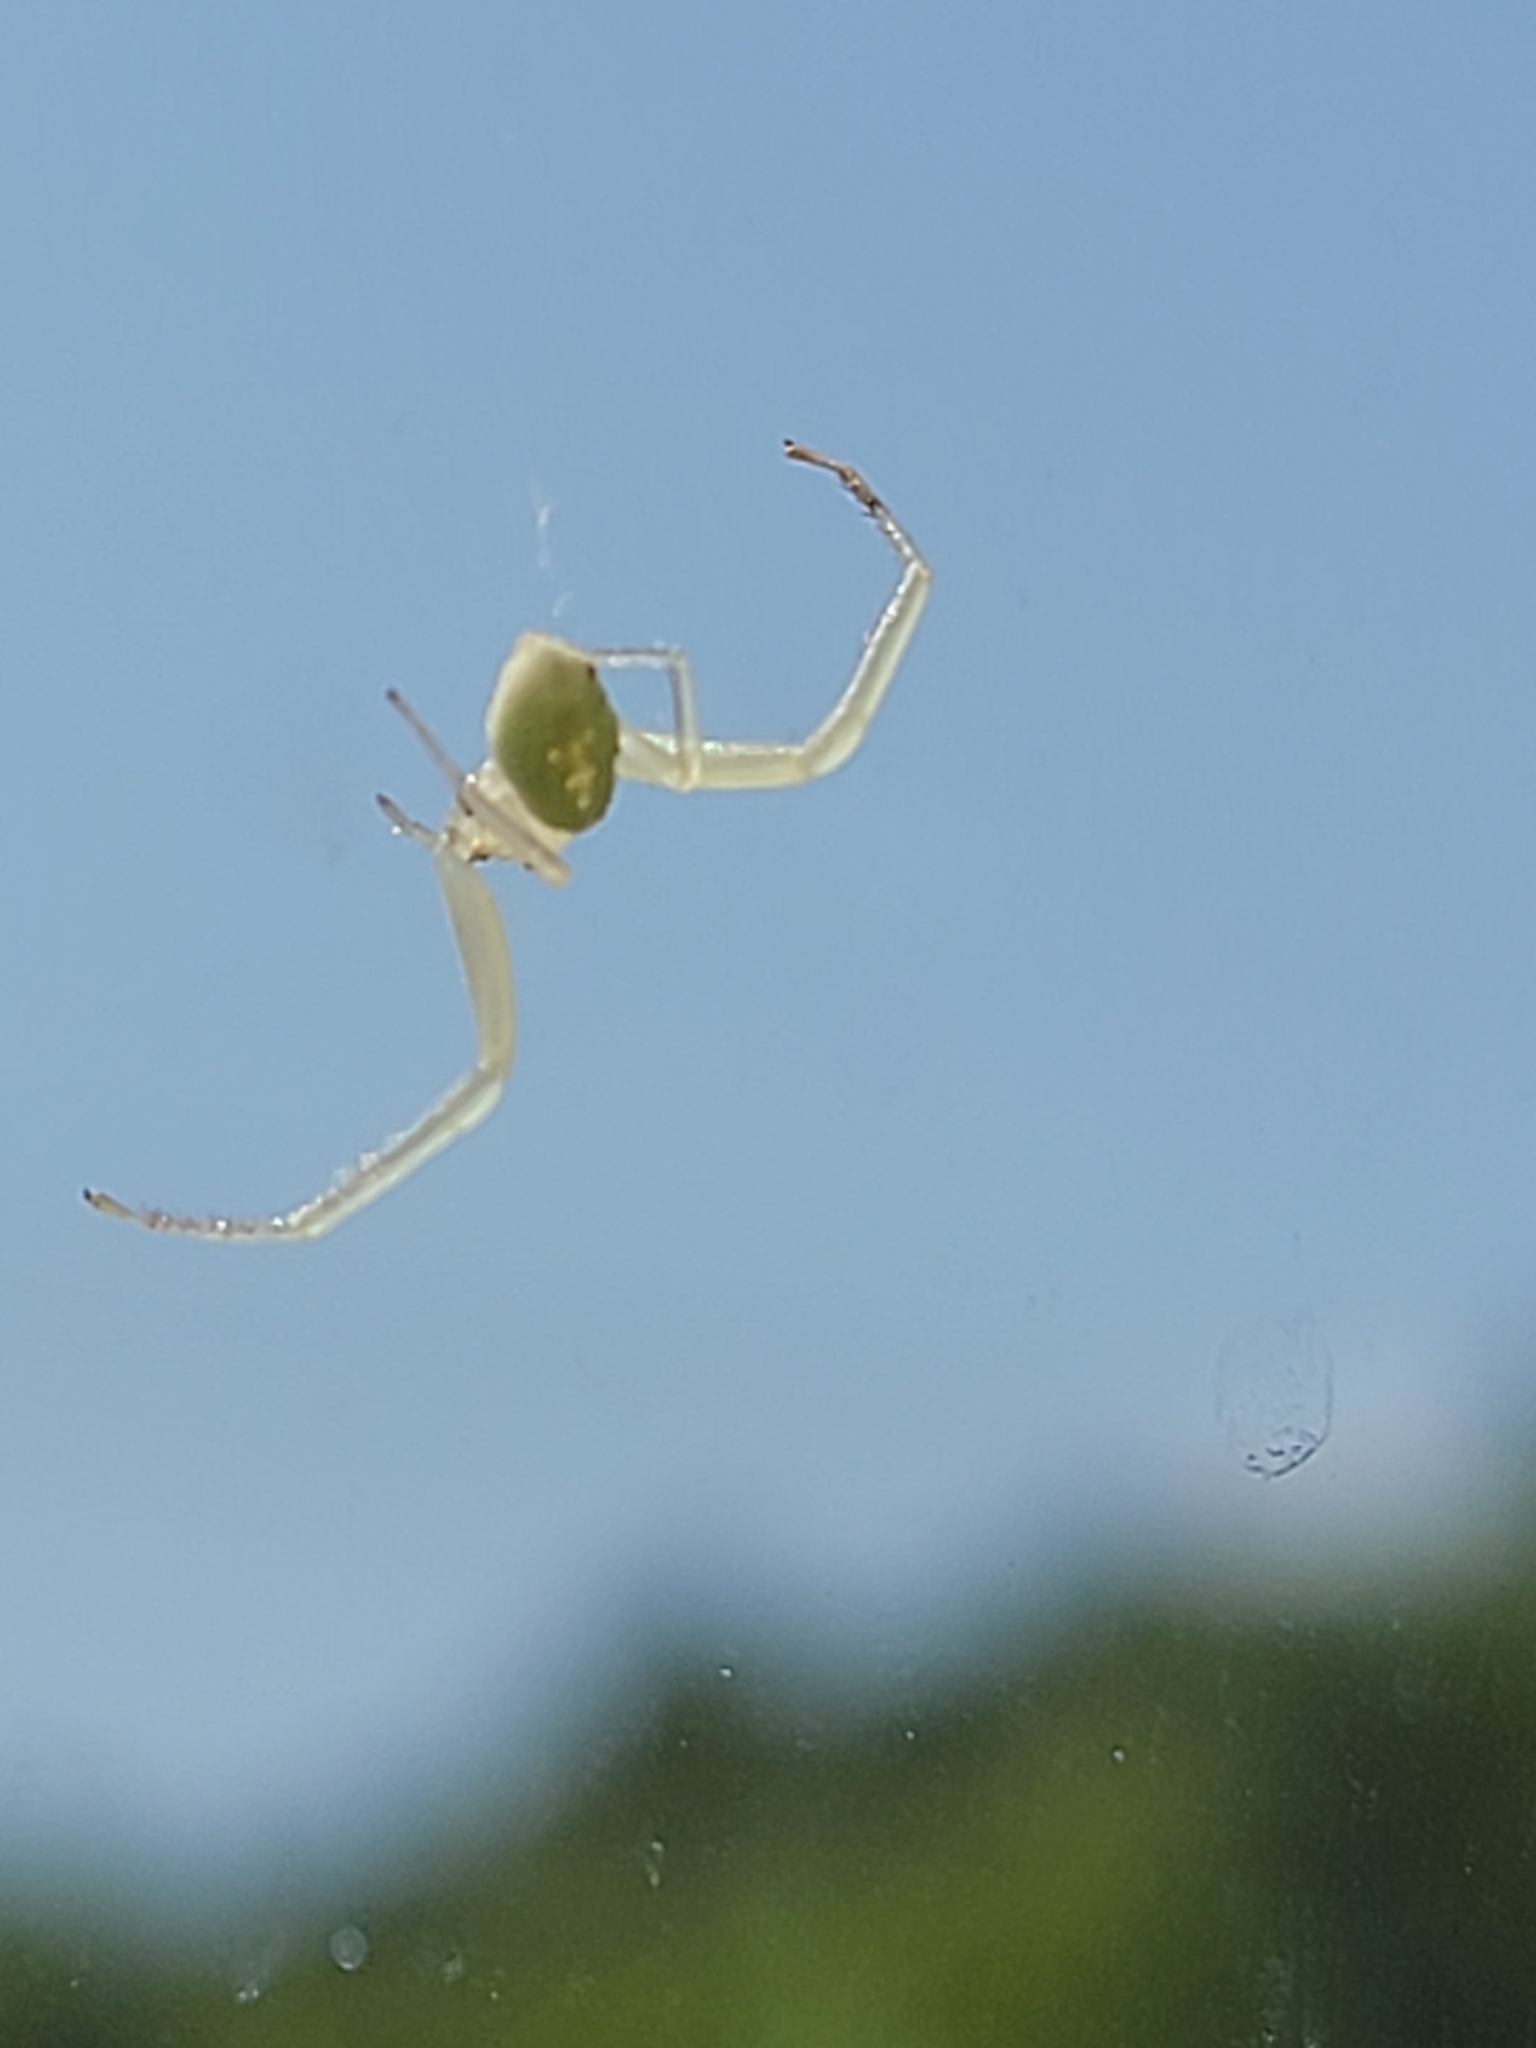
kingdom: Animalia
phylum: Arthropoda
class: Arachnida
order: Araneae
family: Thomisidae
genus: Misumessus
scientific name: Misumessus oblongus
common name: American green crab spider
